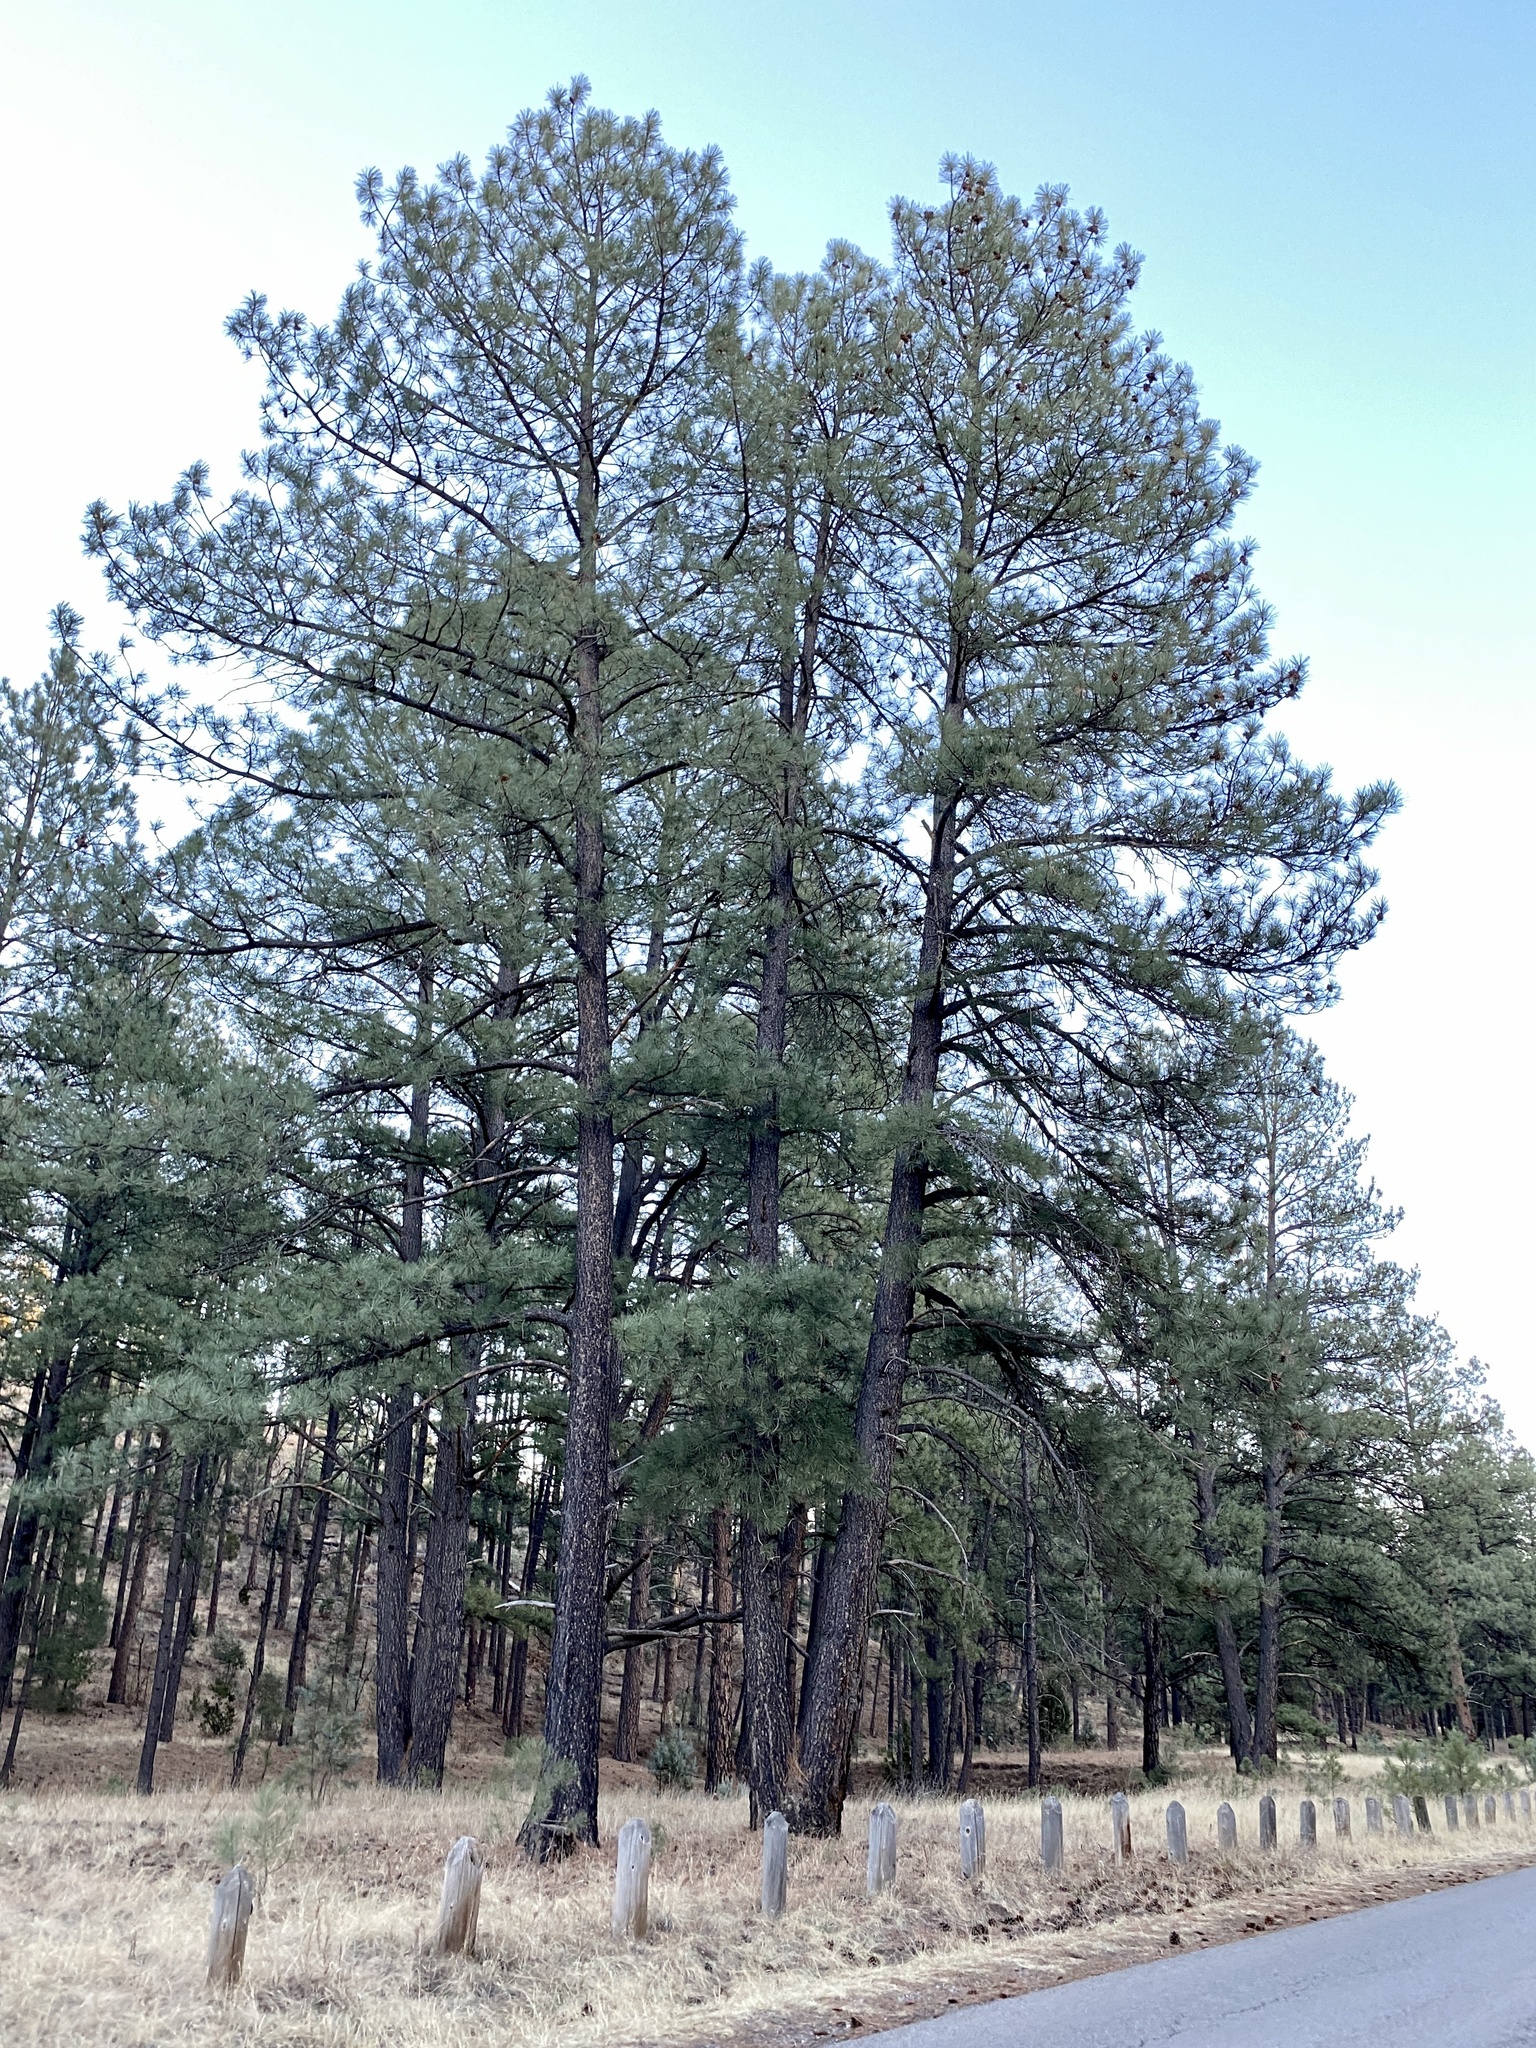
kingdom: Plantae
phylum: Tracheophyta
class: Pinopsida
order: Pinales
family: Pinaceae
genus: Pinus
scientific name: Pinus ponderosa
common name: Western yellow-pine
